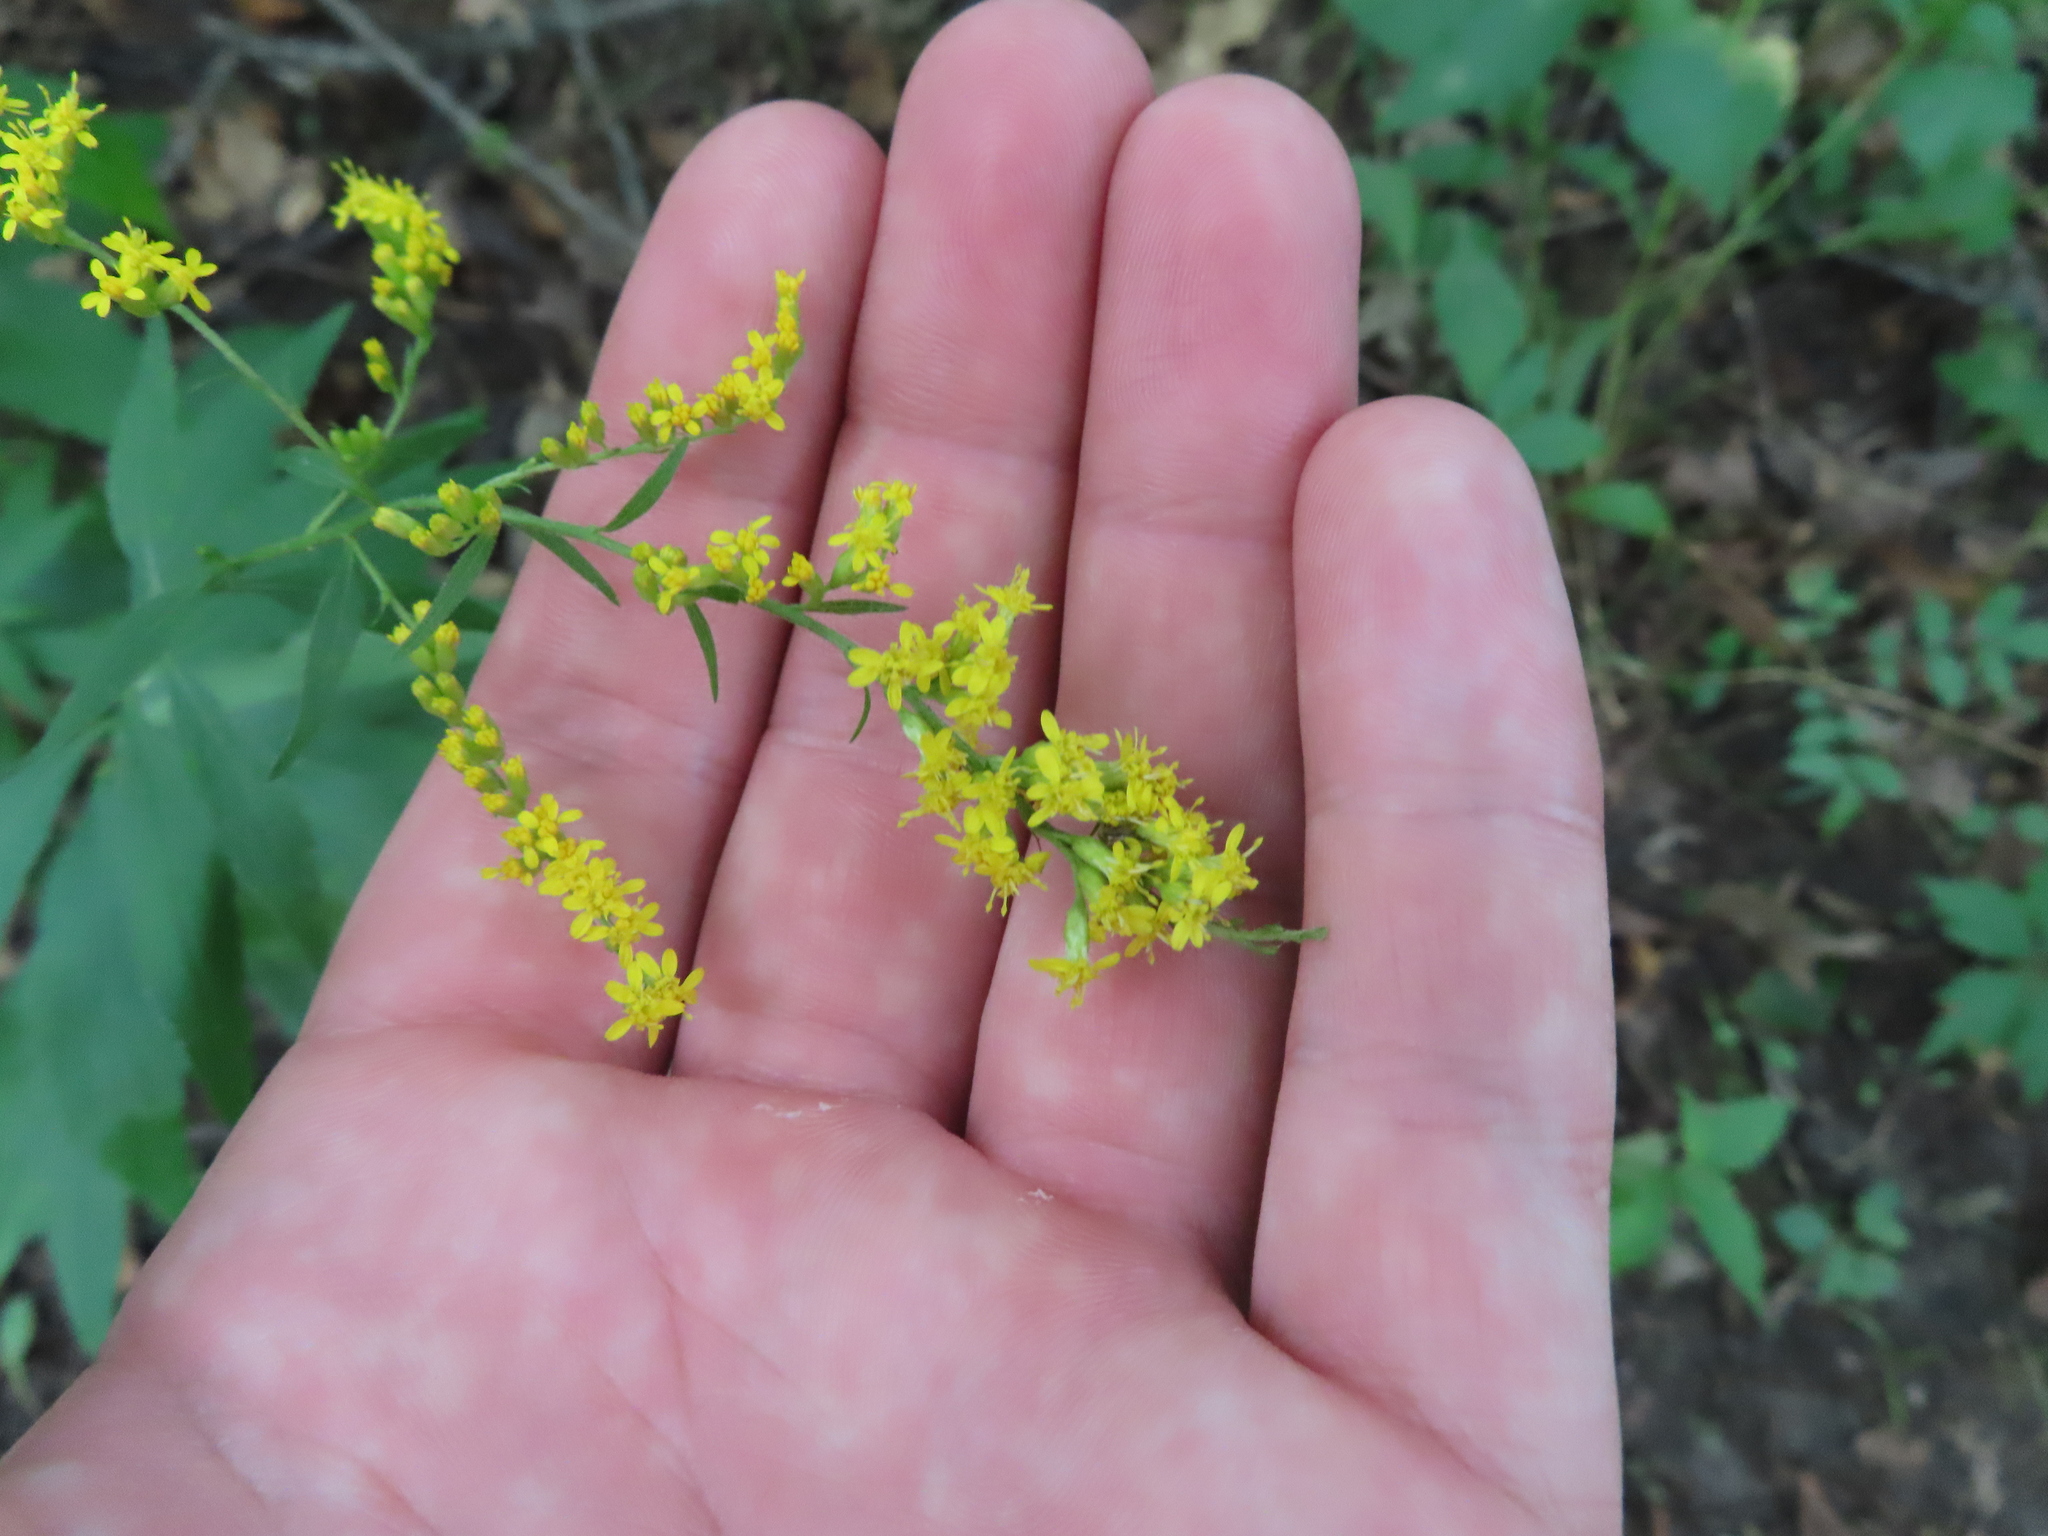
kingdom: Plantae
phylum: Tracheophyta
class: Magnoliopsida
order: Asterales
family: Asteraceae
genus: Solidago
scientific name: Solidago ulmifolia
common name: Elm-leaf goldenrod
